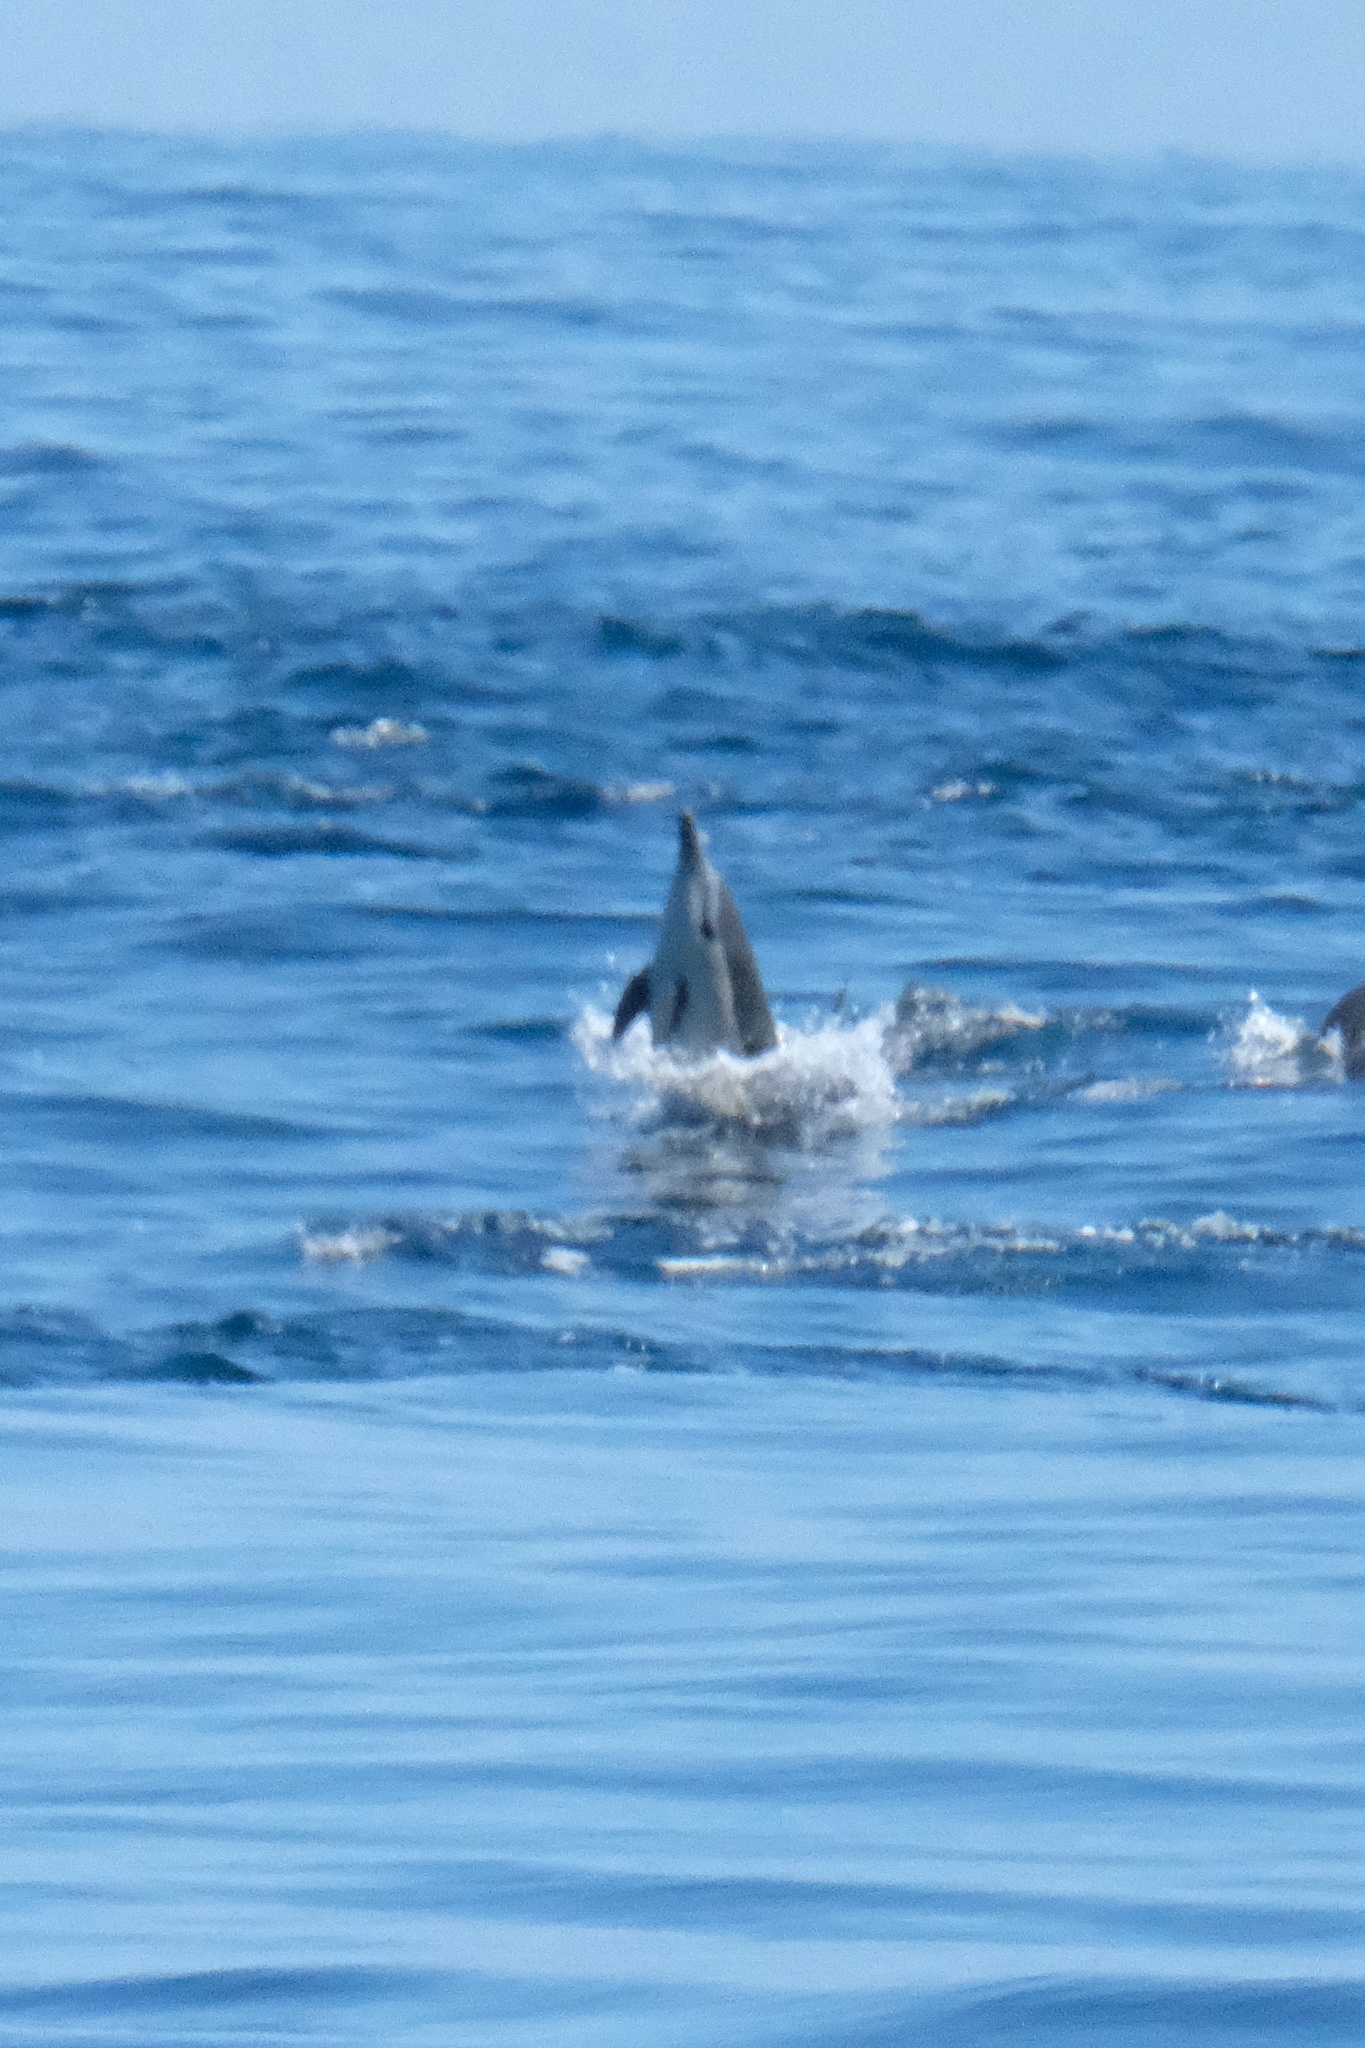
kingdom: Animalia
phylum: Chordata
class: Mammalia
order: Cetacea
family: Delphinidae
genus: Delphinus
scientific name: Delphinus delphis
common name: Common dolphin
